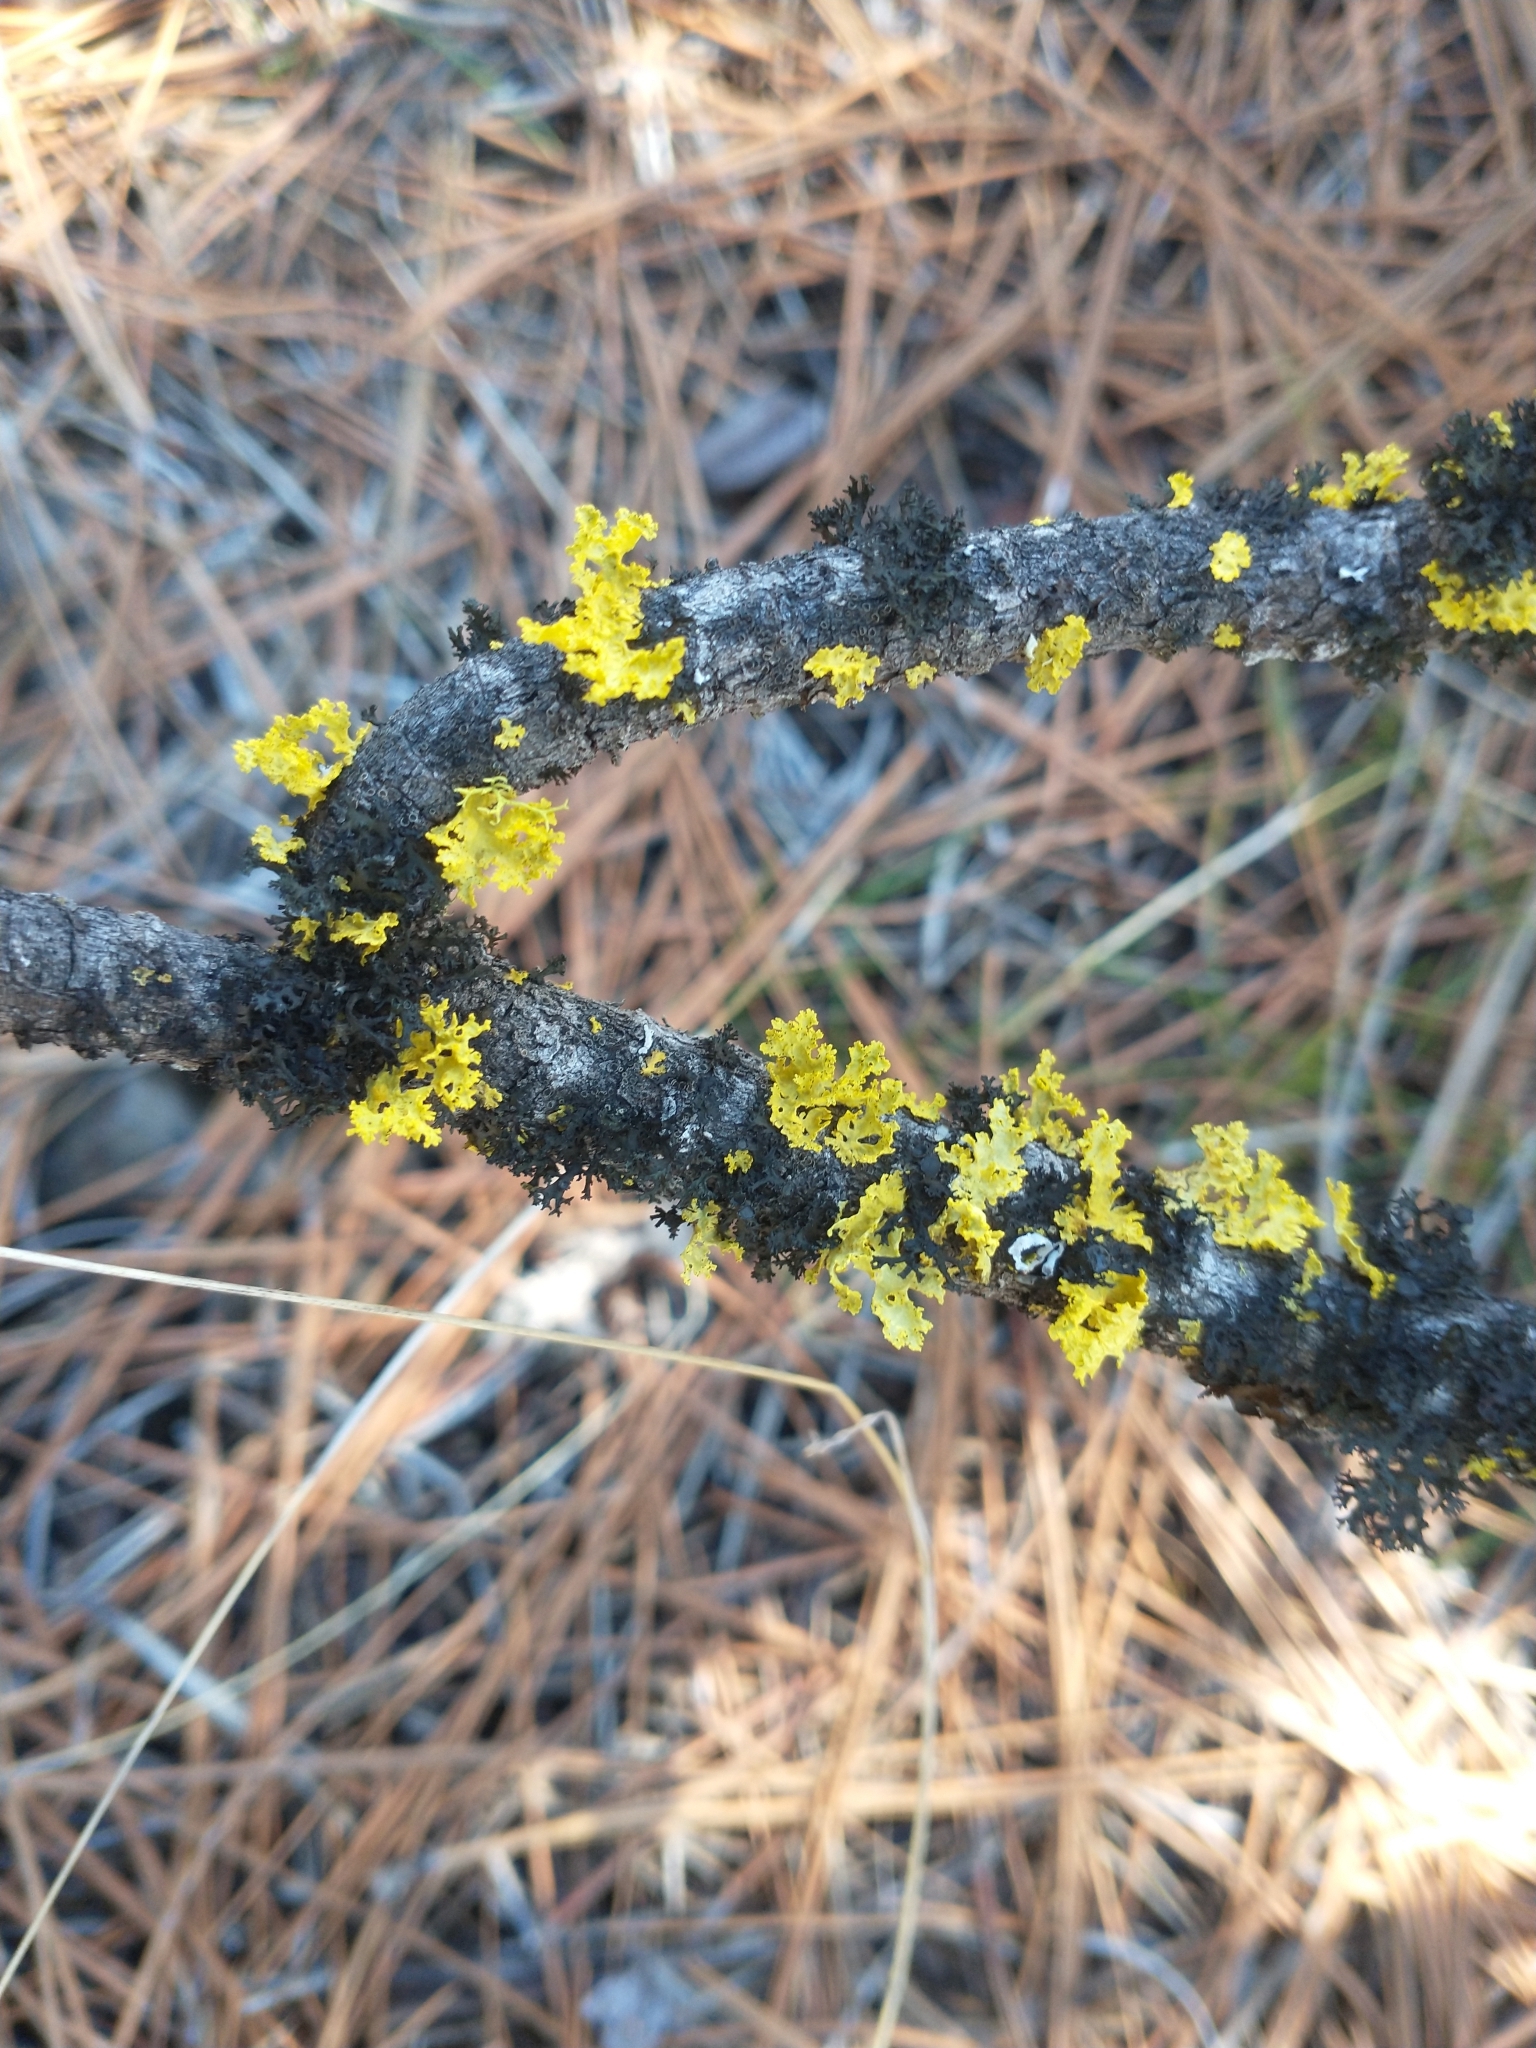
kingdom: Fungi
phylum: Ascomycota
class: Lecanoromycetes
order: Lecanorales
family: Parmeliaceae
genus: Vulpicida
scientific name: Vulpicida canadensis
